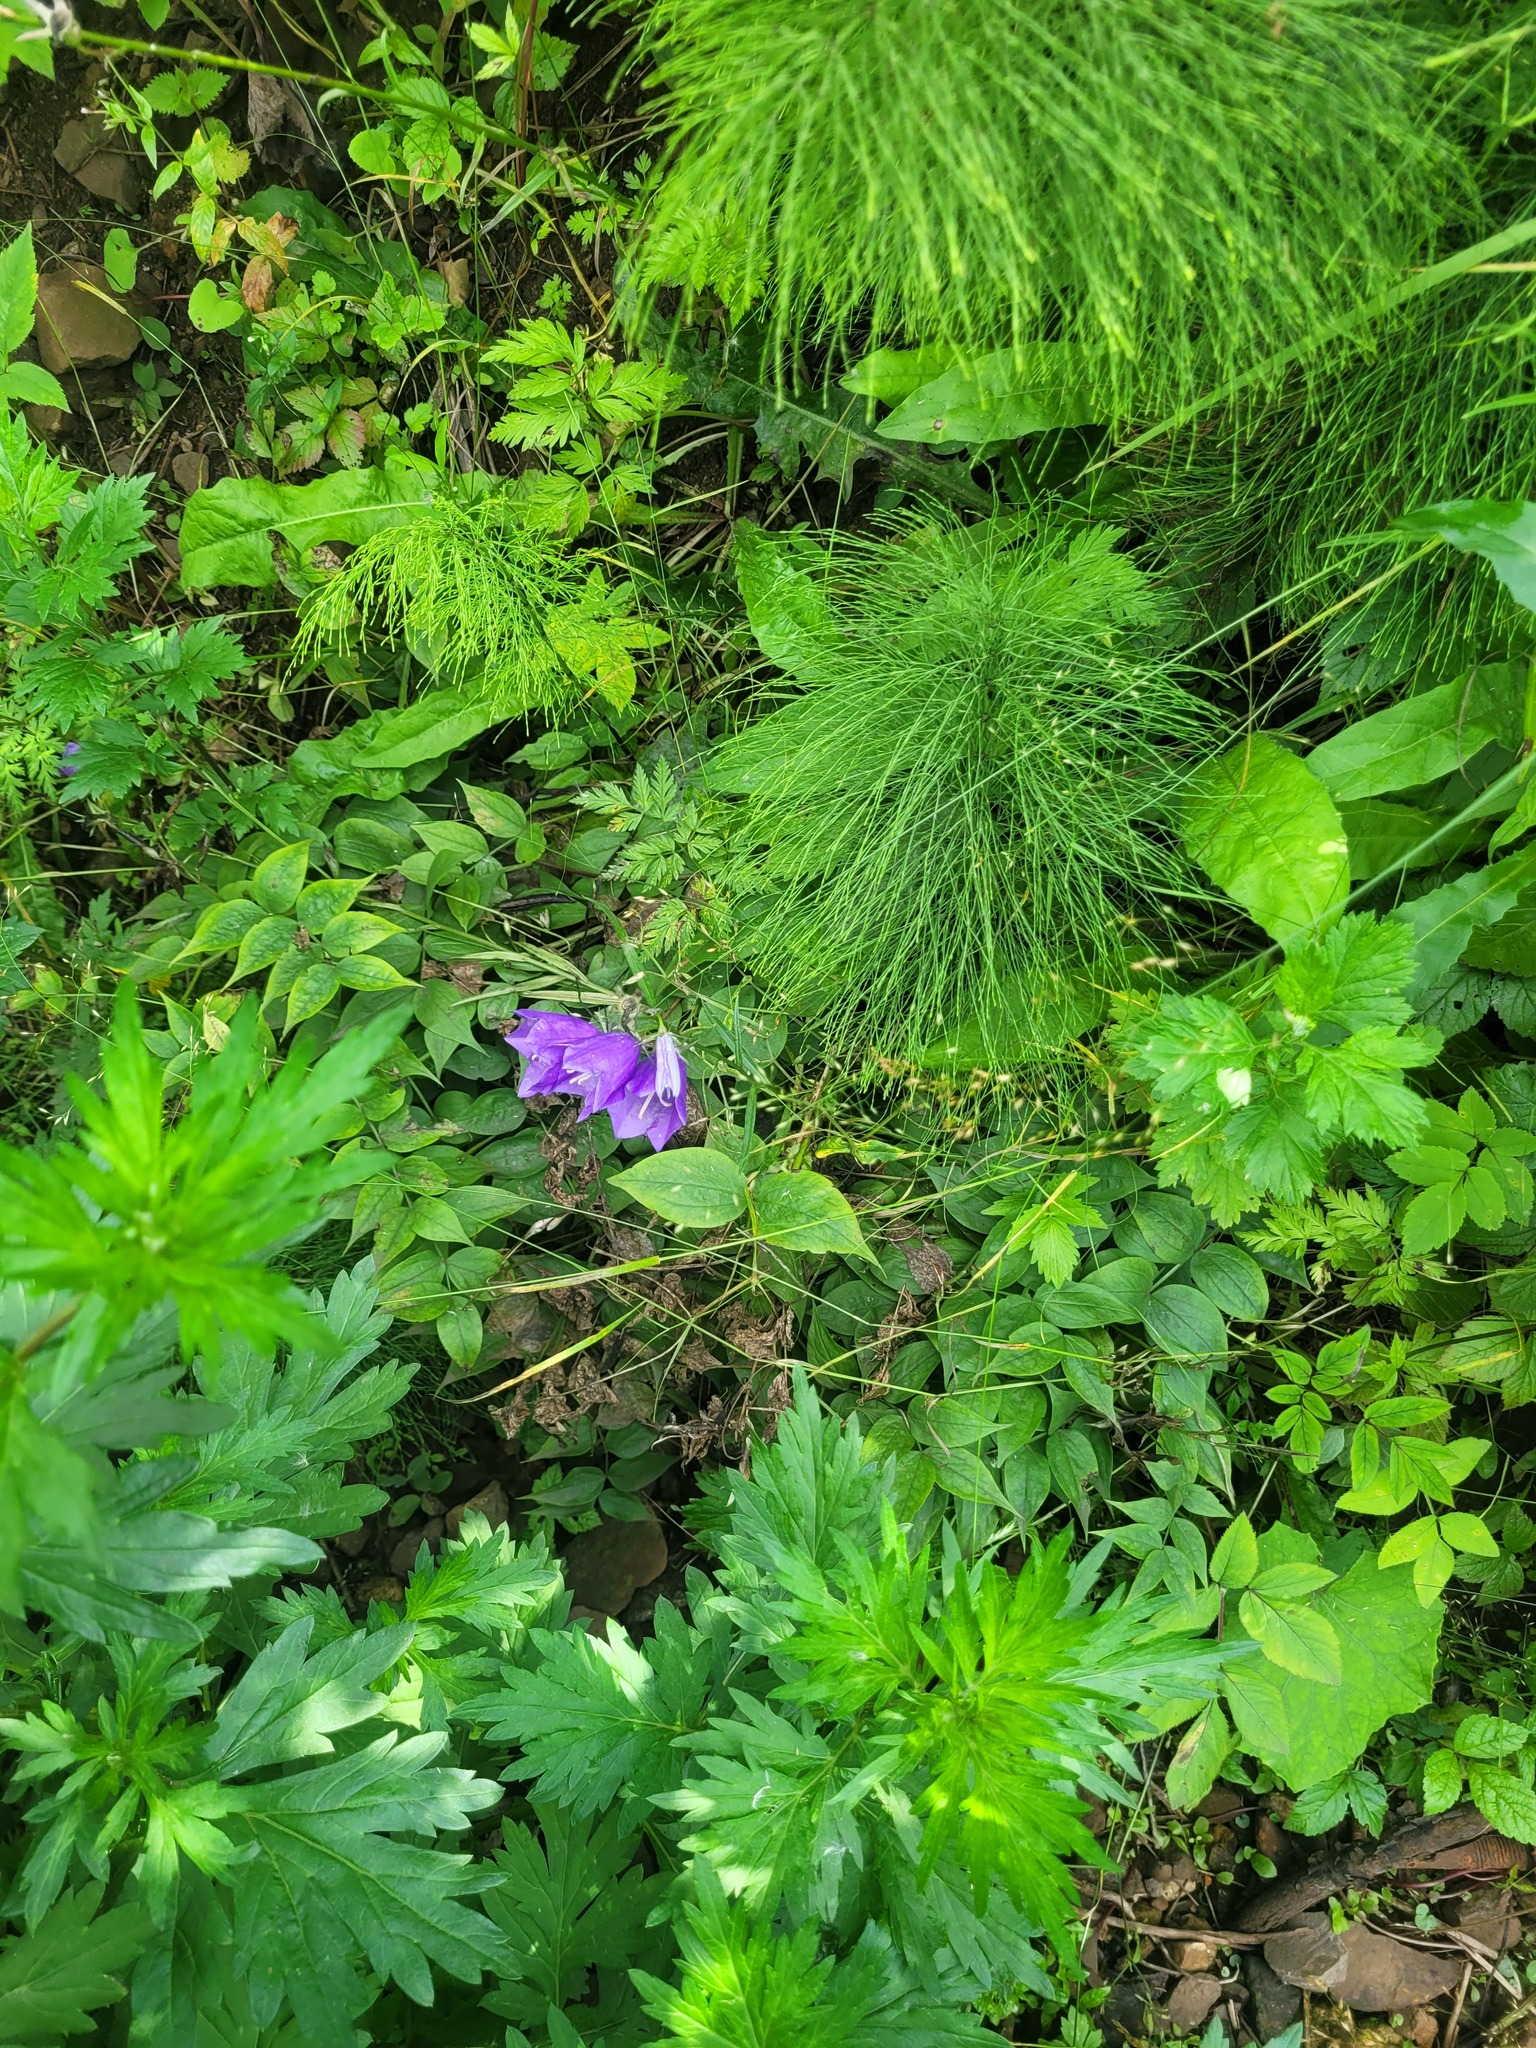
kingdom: Plantae
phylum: Tracheophyta
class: Magnoliopsida
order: Asterales
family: Campanulaceae
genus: Campanula
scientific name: Campanula persicifolia
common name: Peach-leaved bellflower
